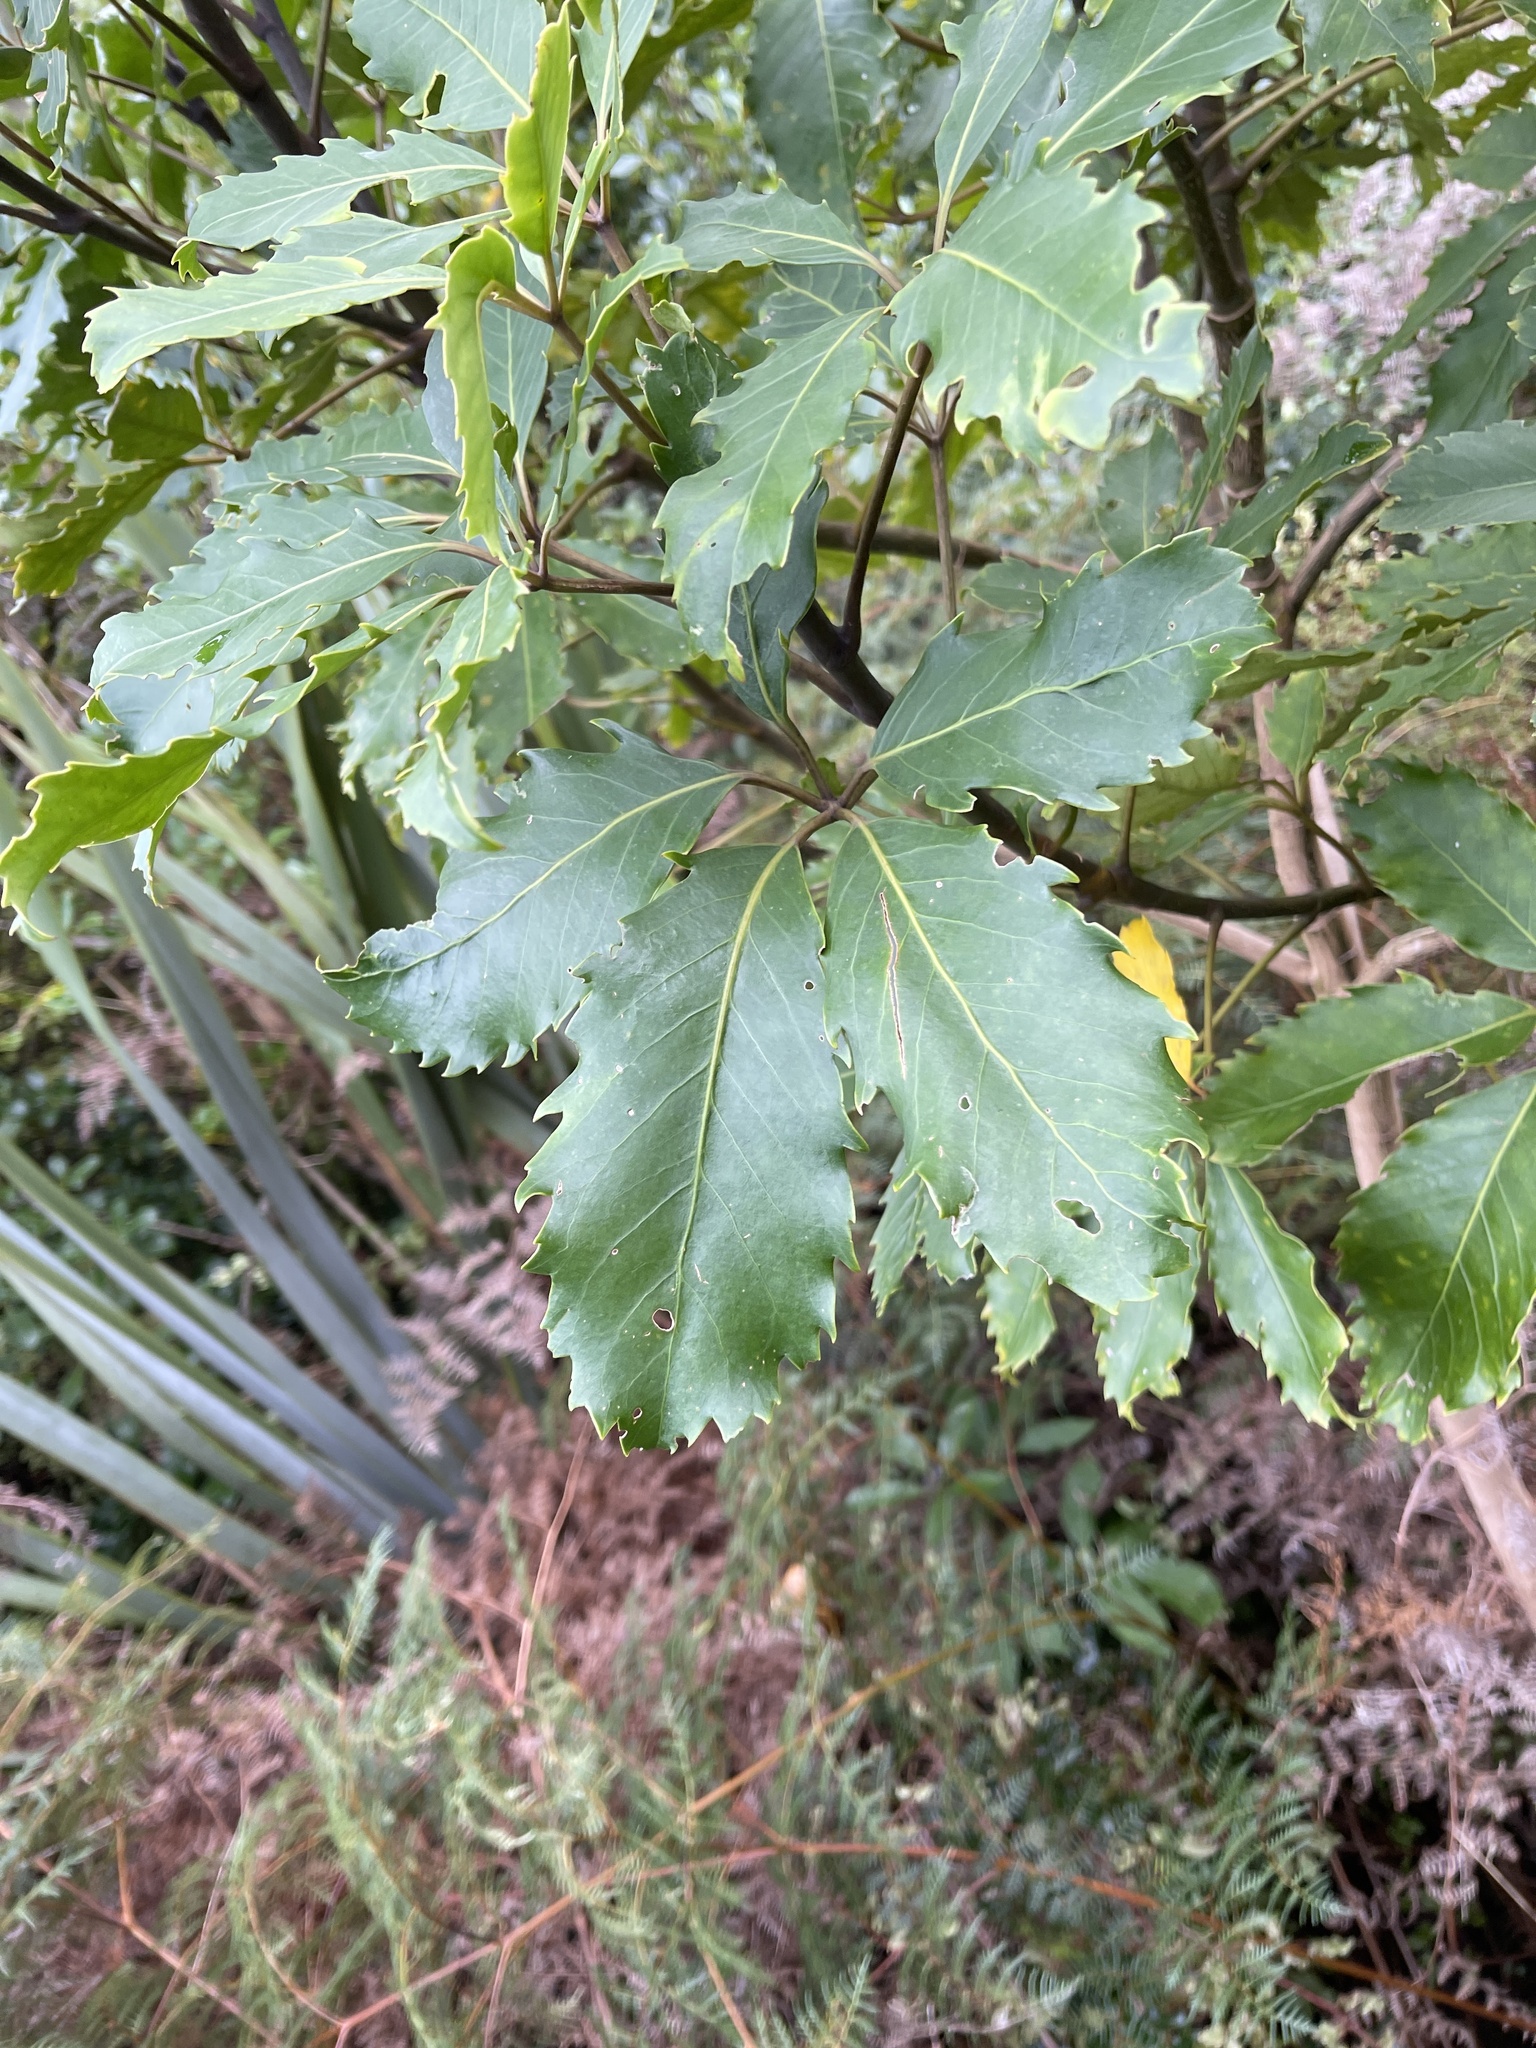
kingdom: Plantae
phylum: Tracheophyta
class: Magnoliopsida
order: Apiales
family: Araliaceae
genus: Neopanax
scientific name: Neopanax arboreus
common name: Five-fingers
